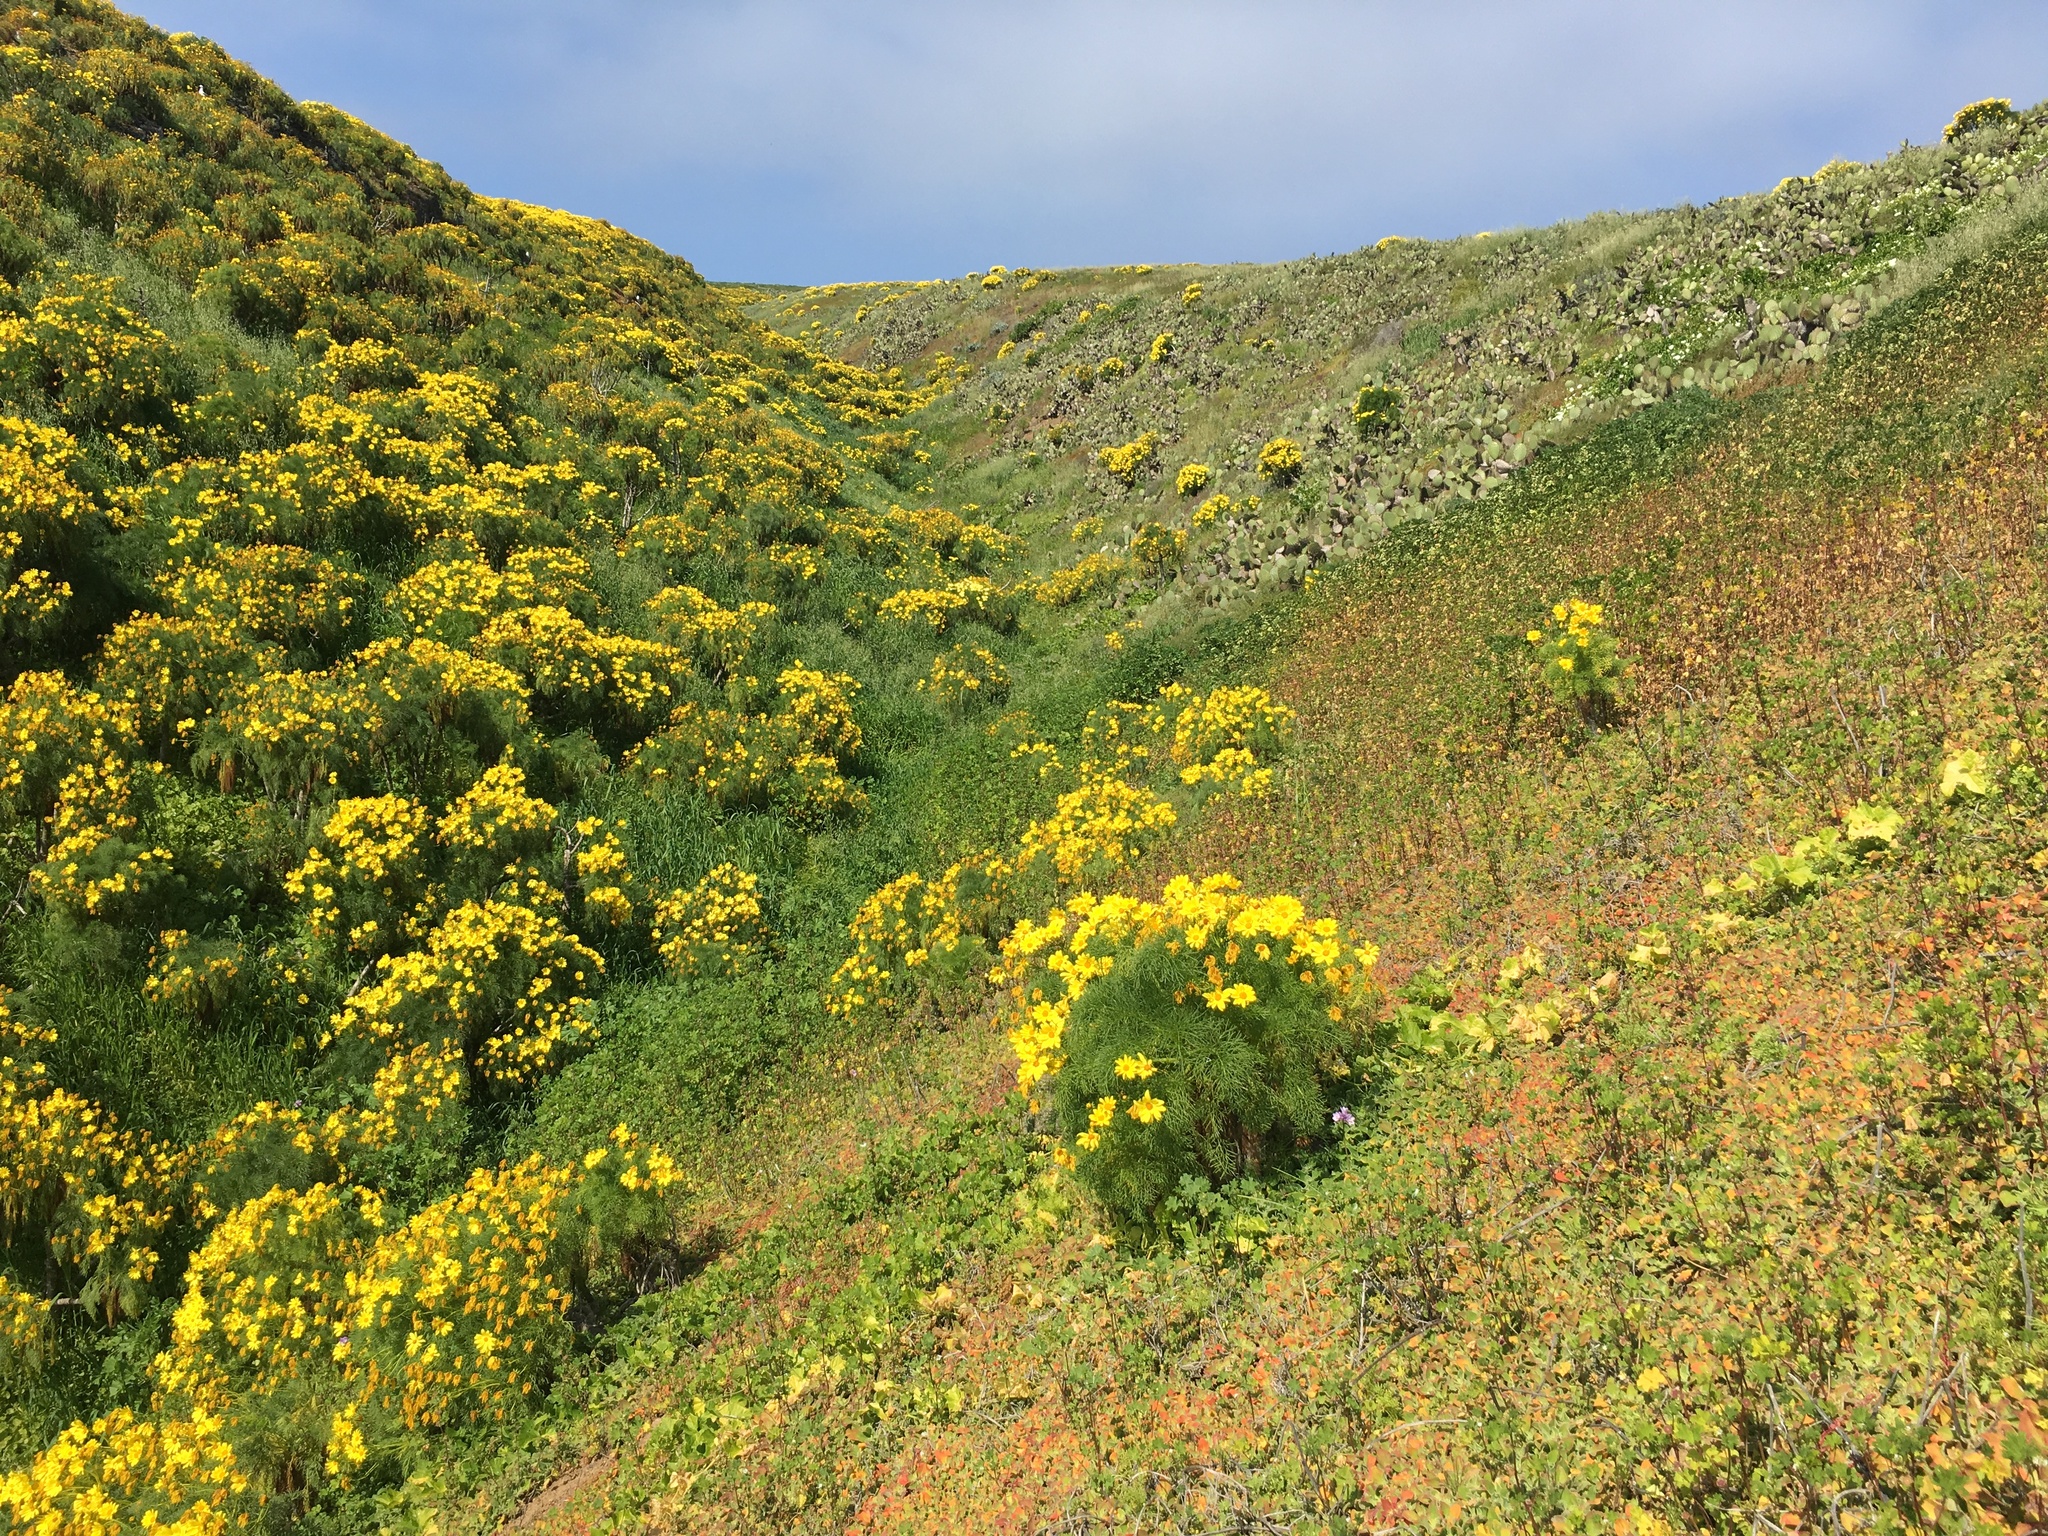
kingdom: Plantae
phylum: Tracheophyta
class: Magnoliopsida
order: Asterales
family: Asteraceae
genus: Coreopsis
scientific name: Coreopsis gigantea
